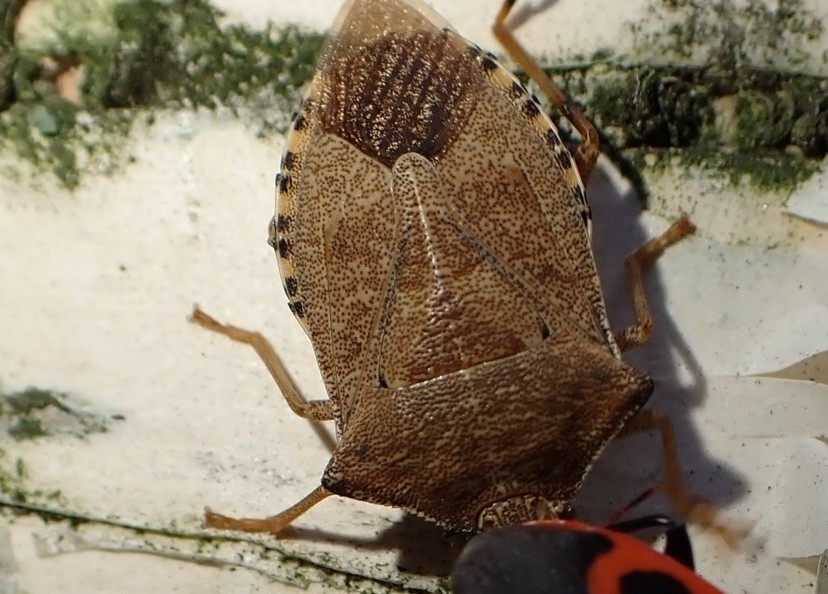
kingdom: Animalia
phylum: Arthropoda
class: Insecta
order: Hemiptera
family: Pentatomidae
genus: Arma
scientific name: Arma custos
